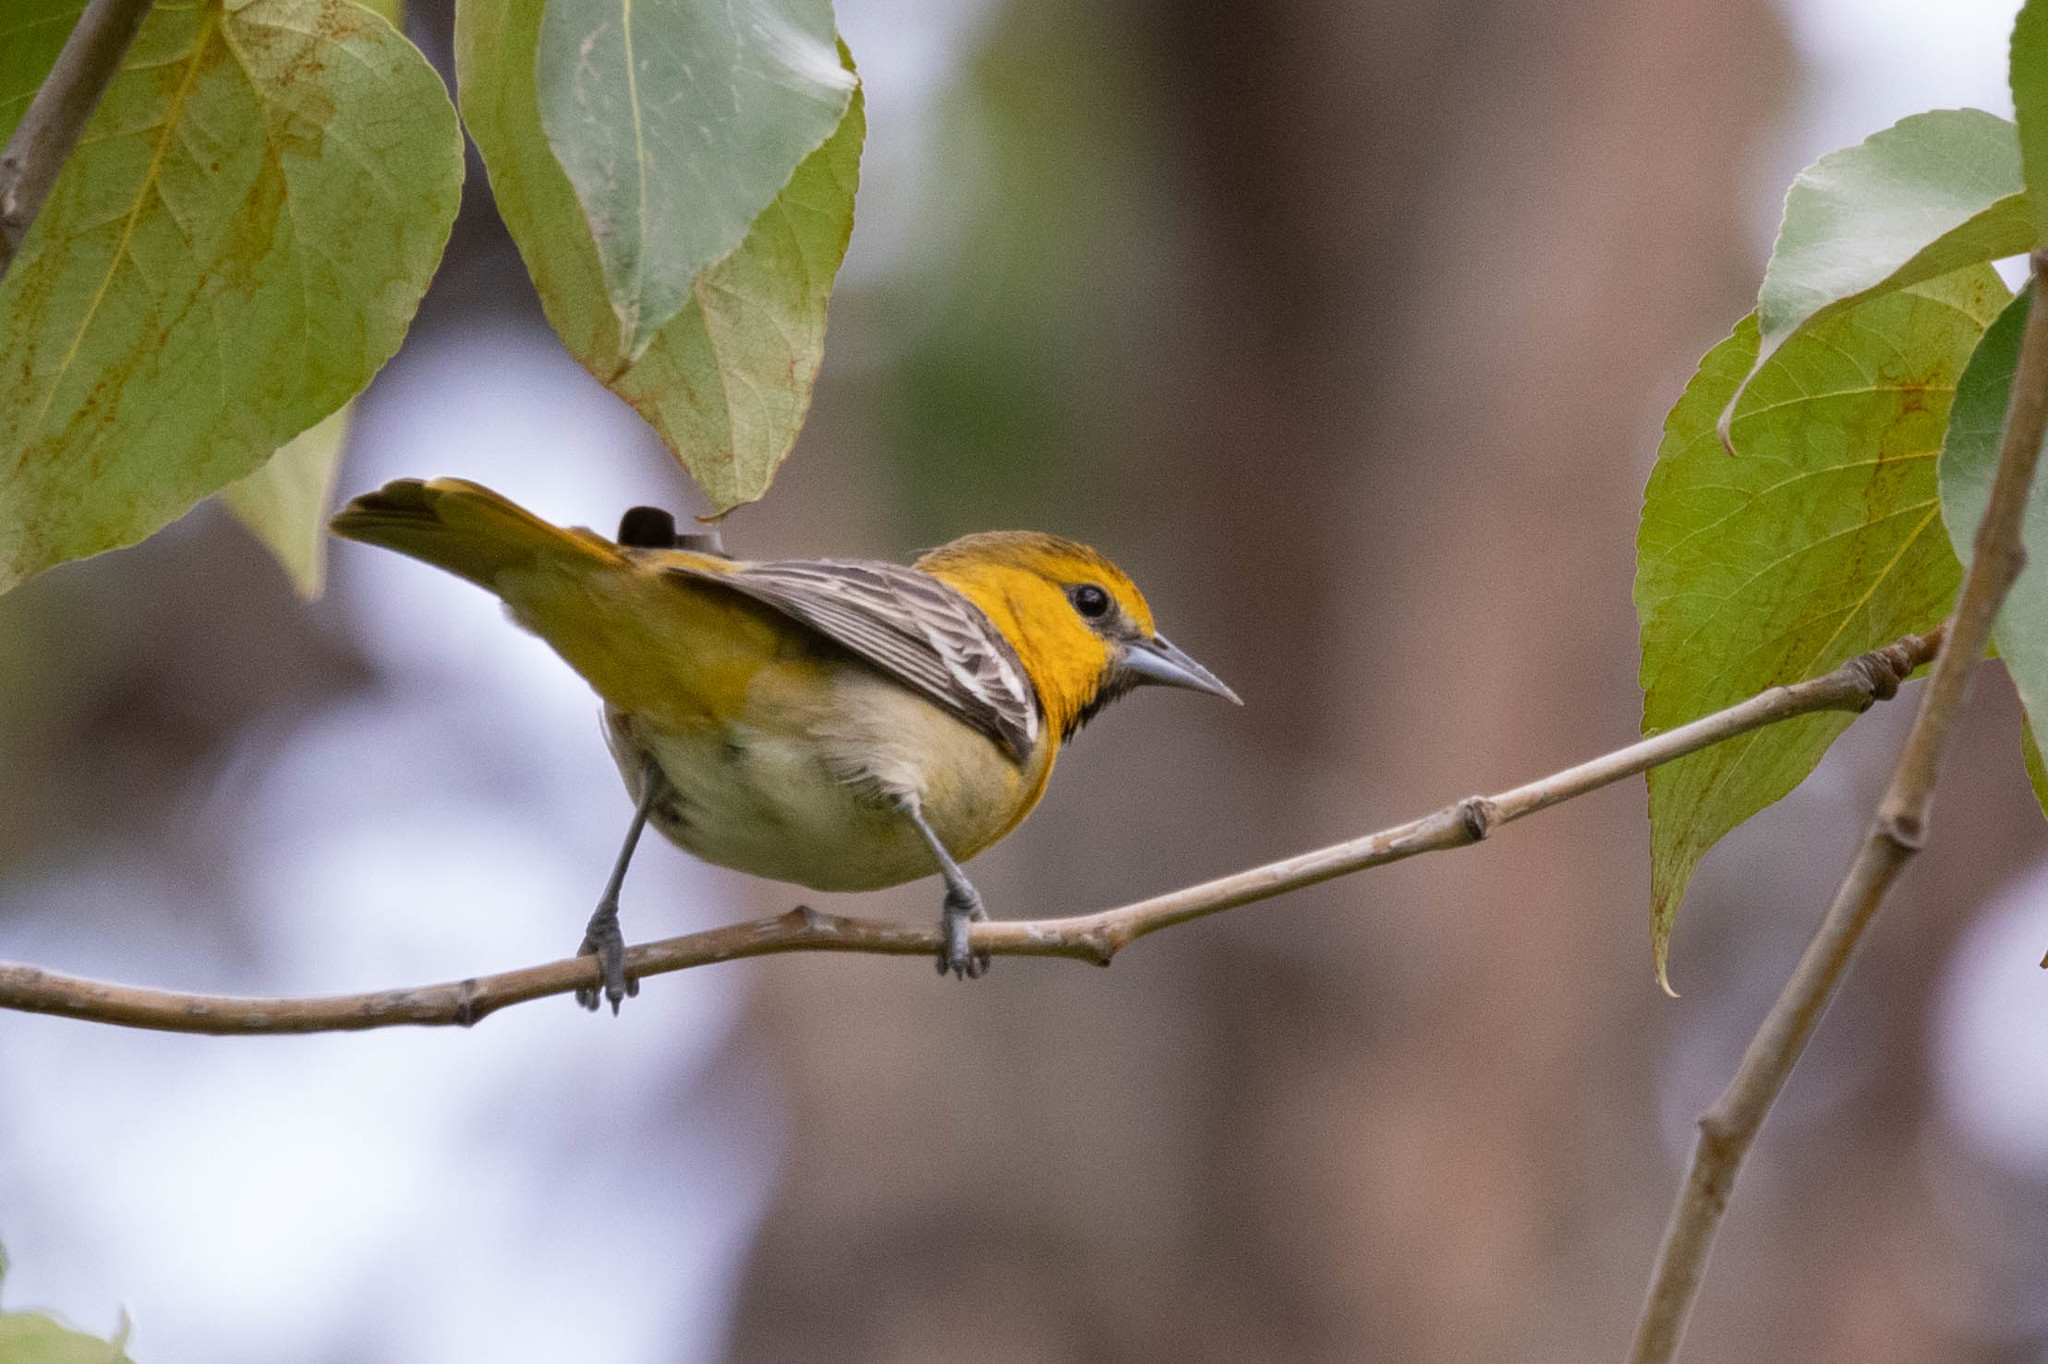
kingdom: Animalia
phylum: Chordata
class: Aves
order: Passeriformes
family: Icteridae
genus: Icterus
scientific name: Icterus bullockii
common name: Bullock's oriole
